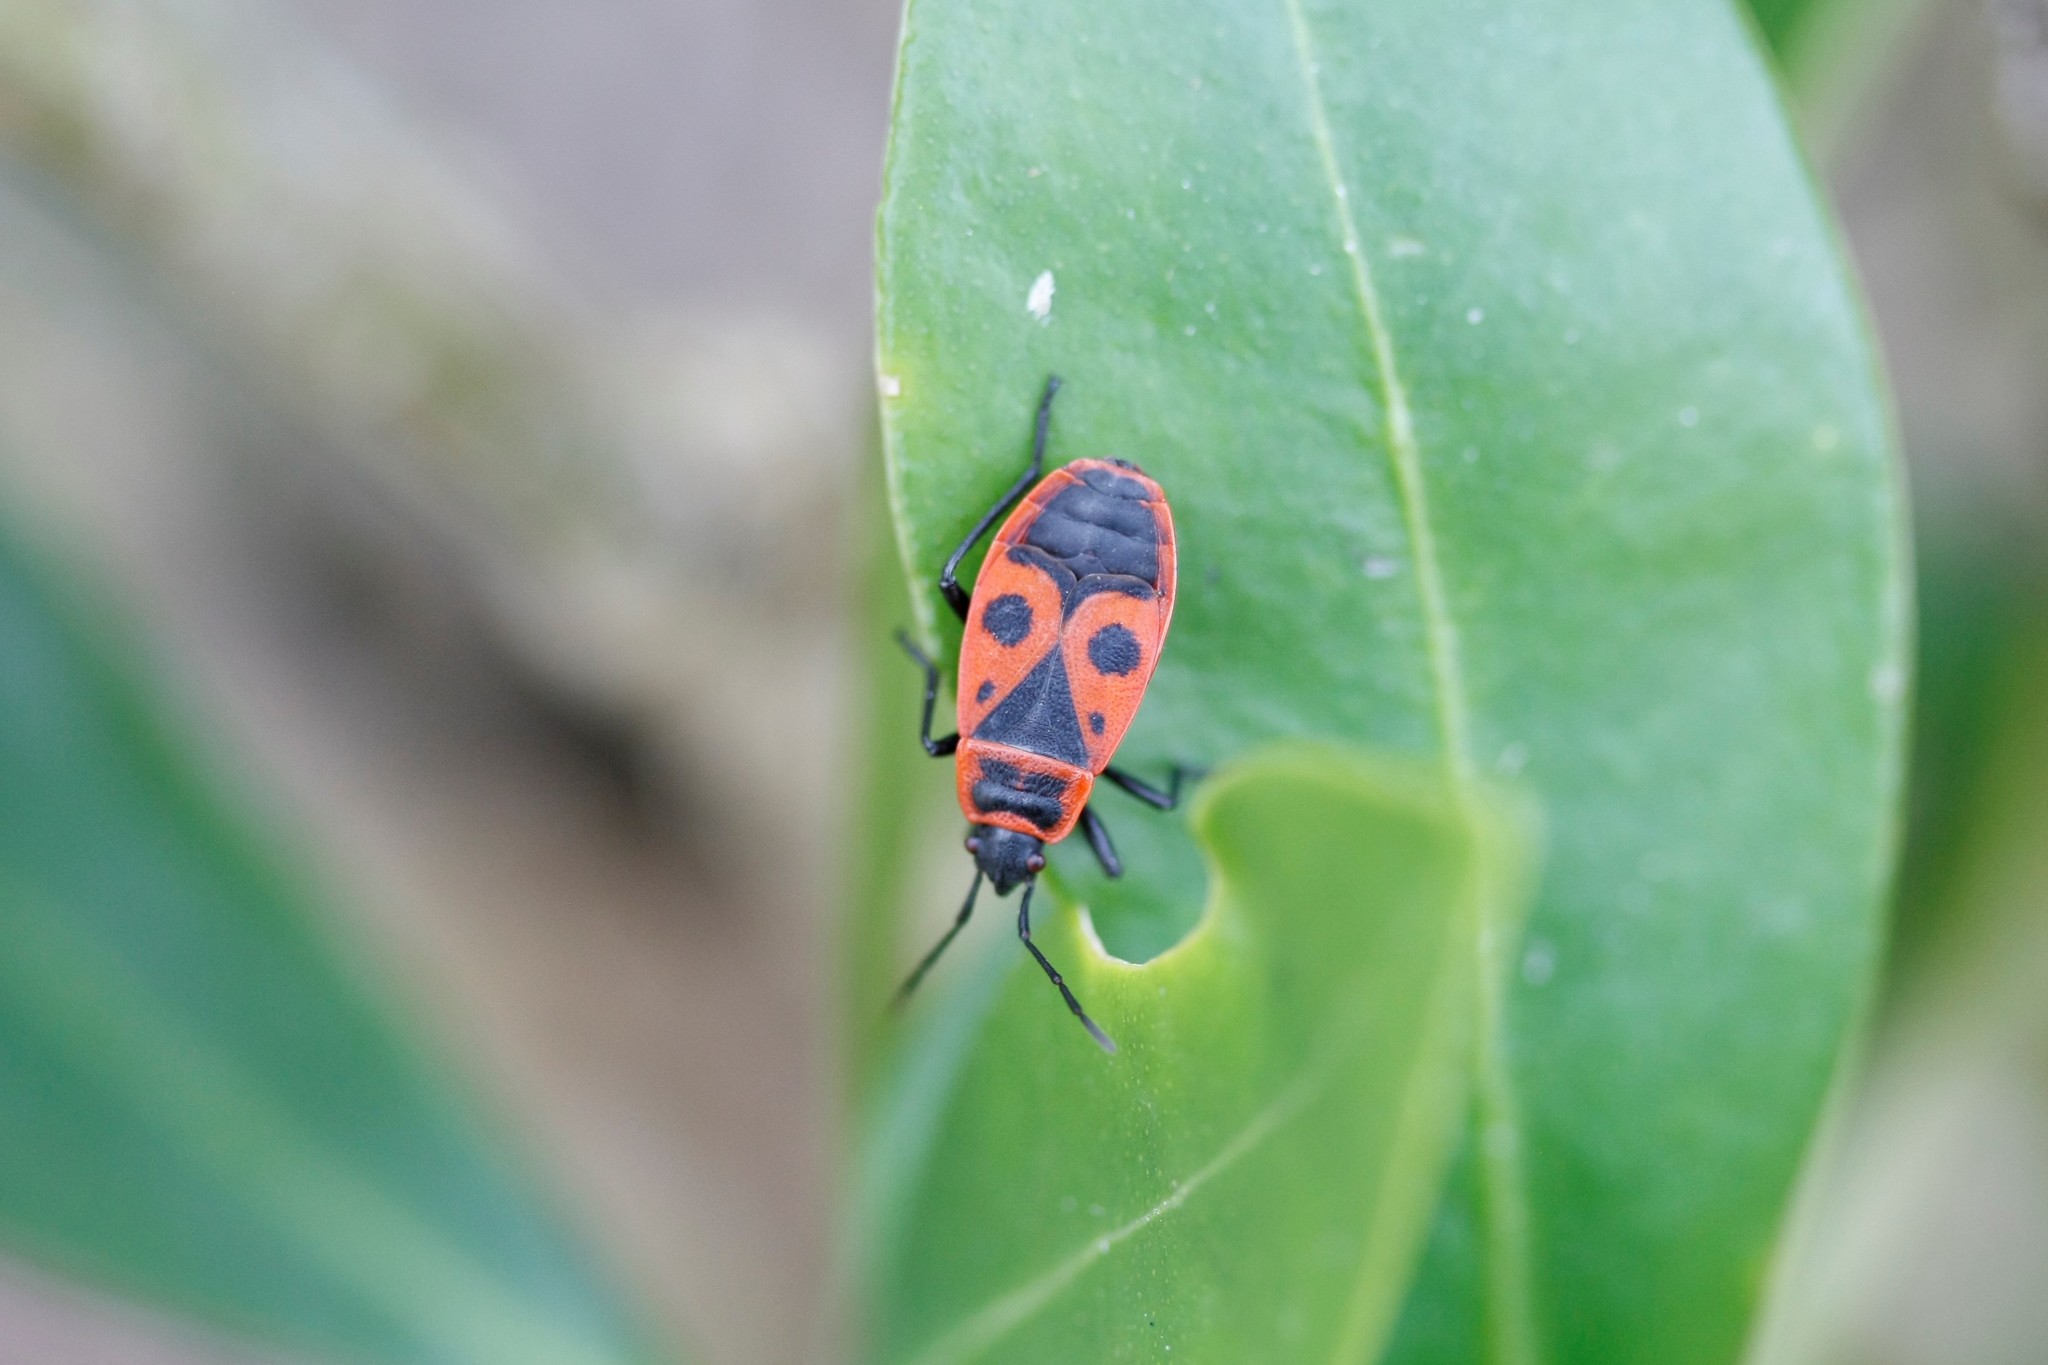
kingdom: Animalia
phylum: Arthropoda
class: Insecta
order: Hemiptera
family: Pyrrhocoridae
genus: Pyrrhocoris
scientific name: Pyrrhocoris apterus
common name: Firebug
